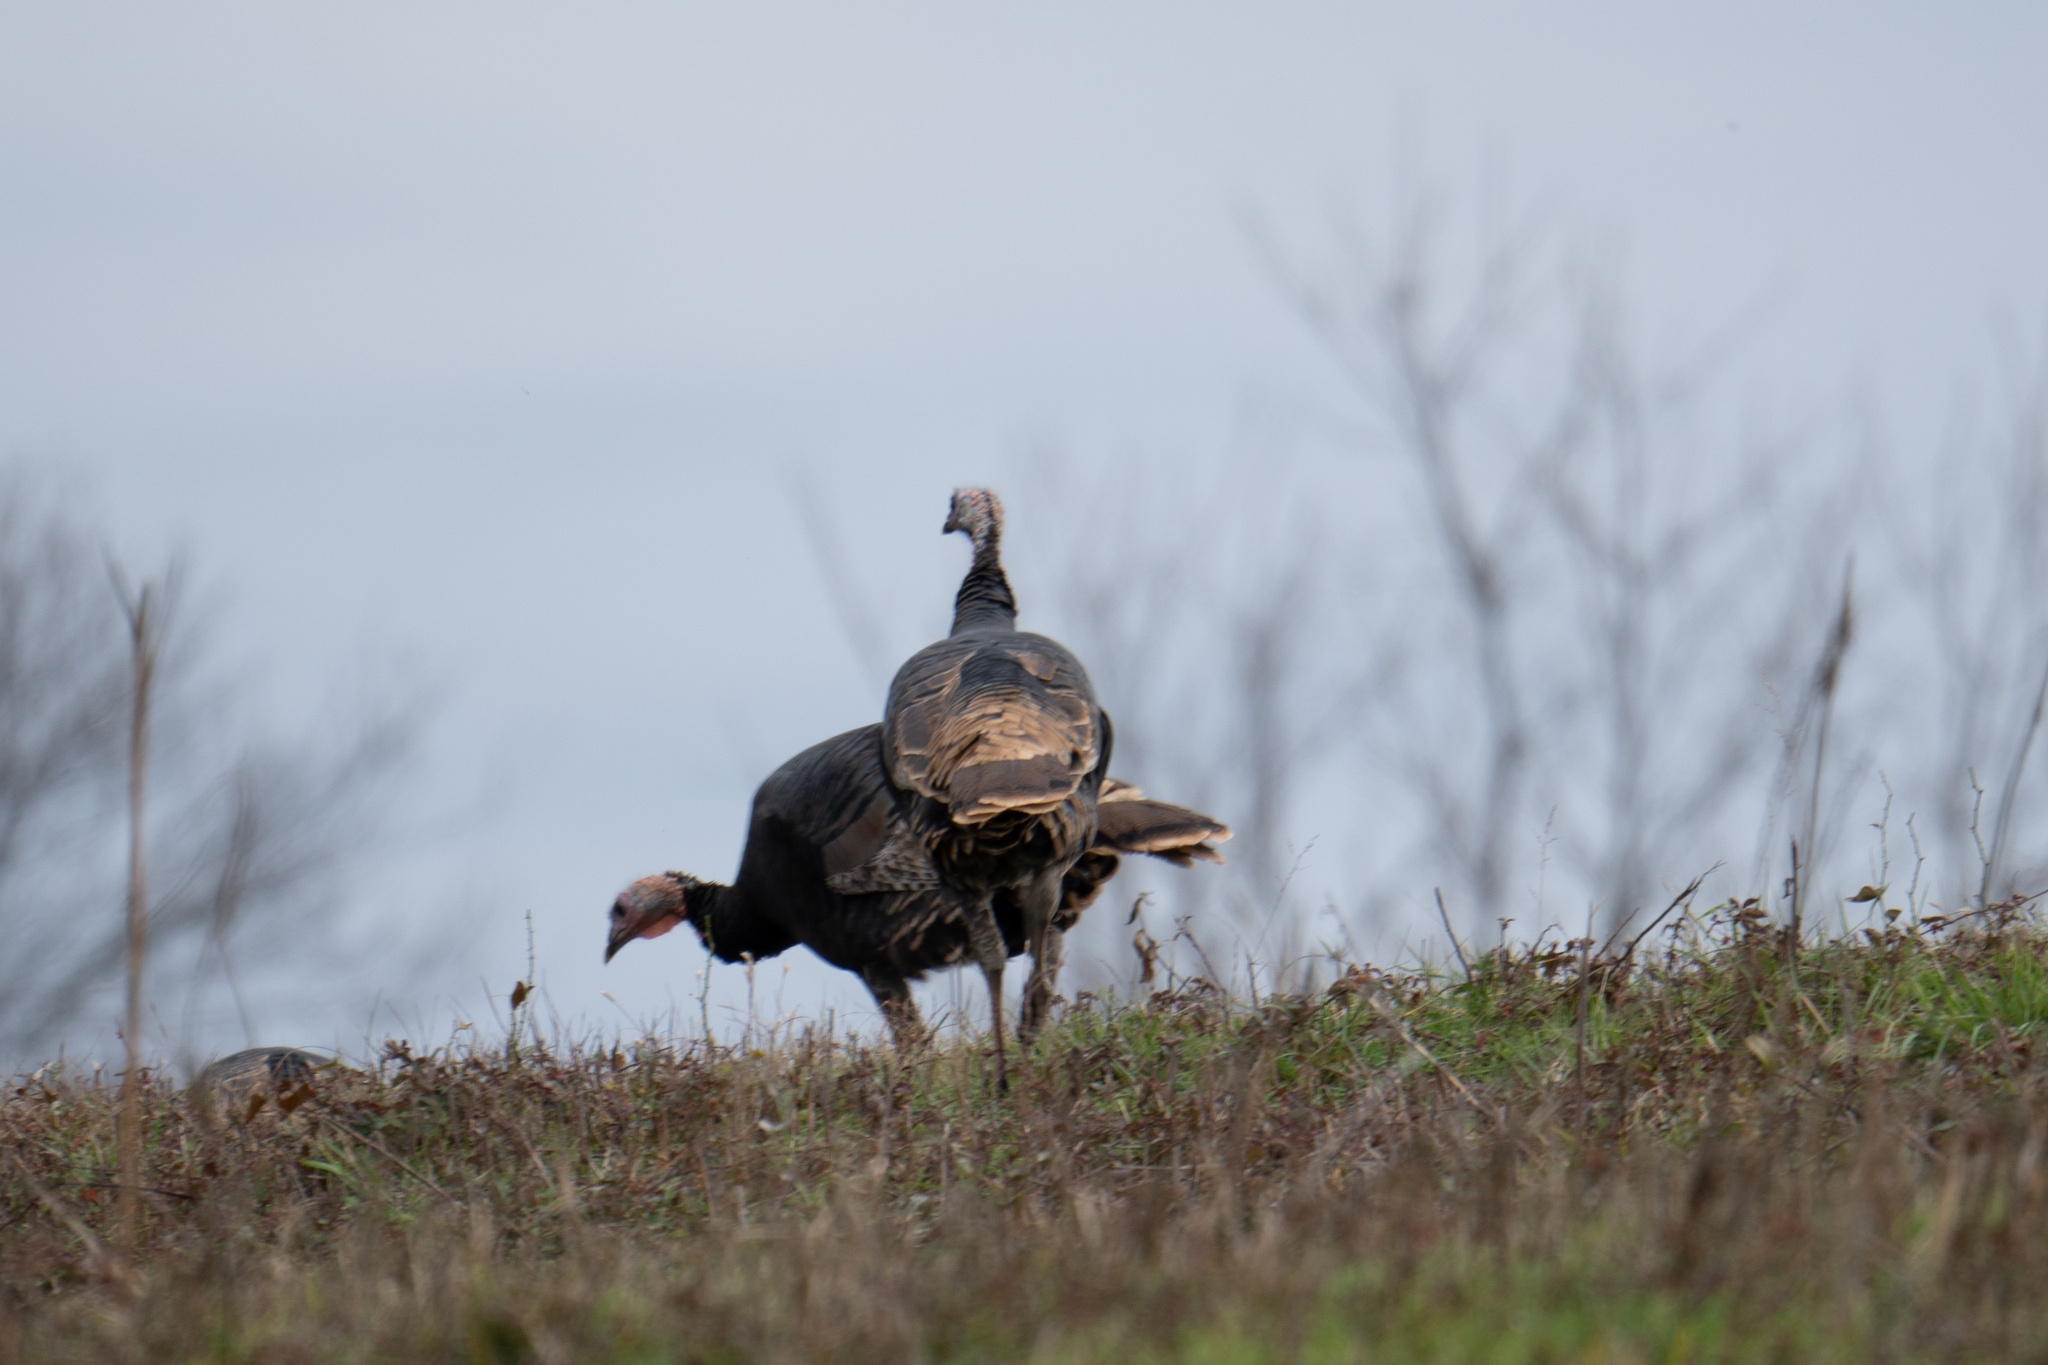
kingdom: Animalia
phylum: Chordata
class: Aves
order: Galliformes
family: Phasianidae
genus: Meleagris
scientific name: Meleagris gallopavo
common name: Wild turkey
